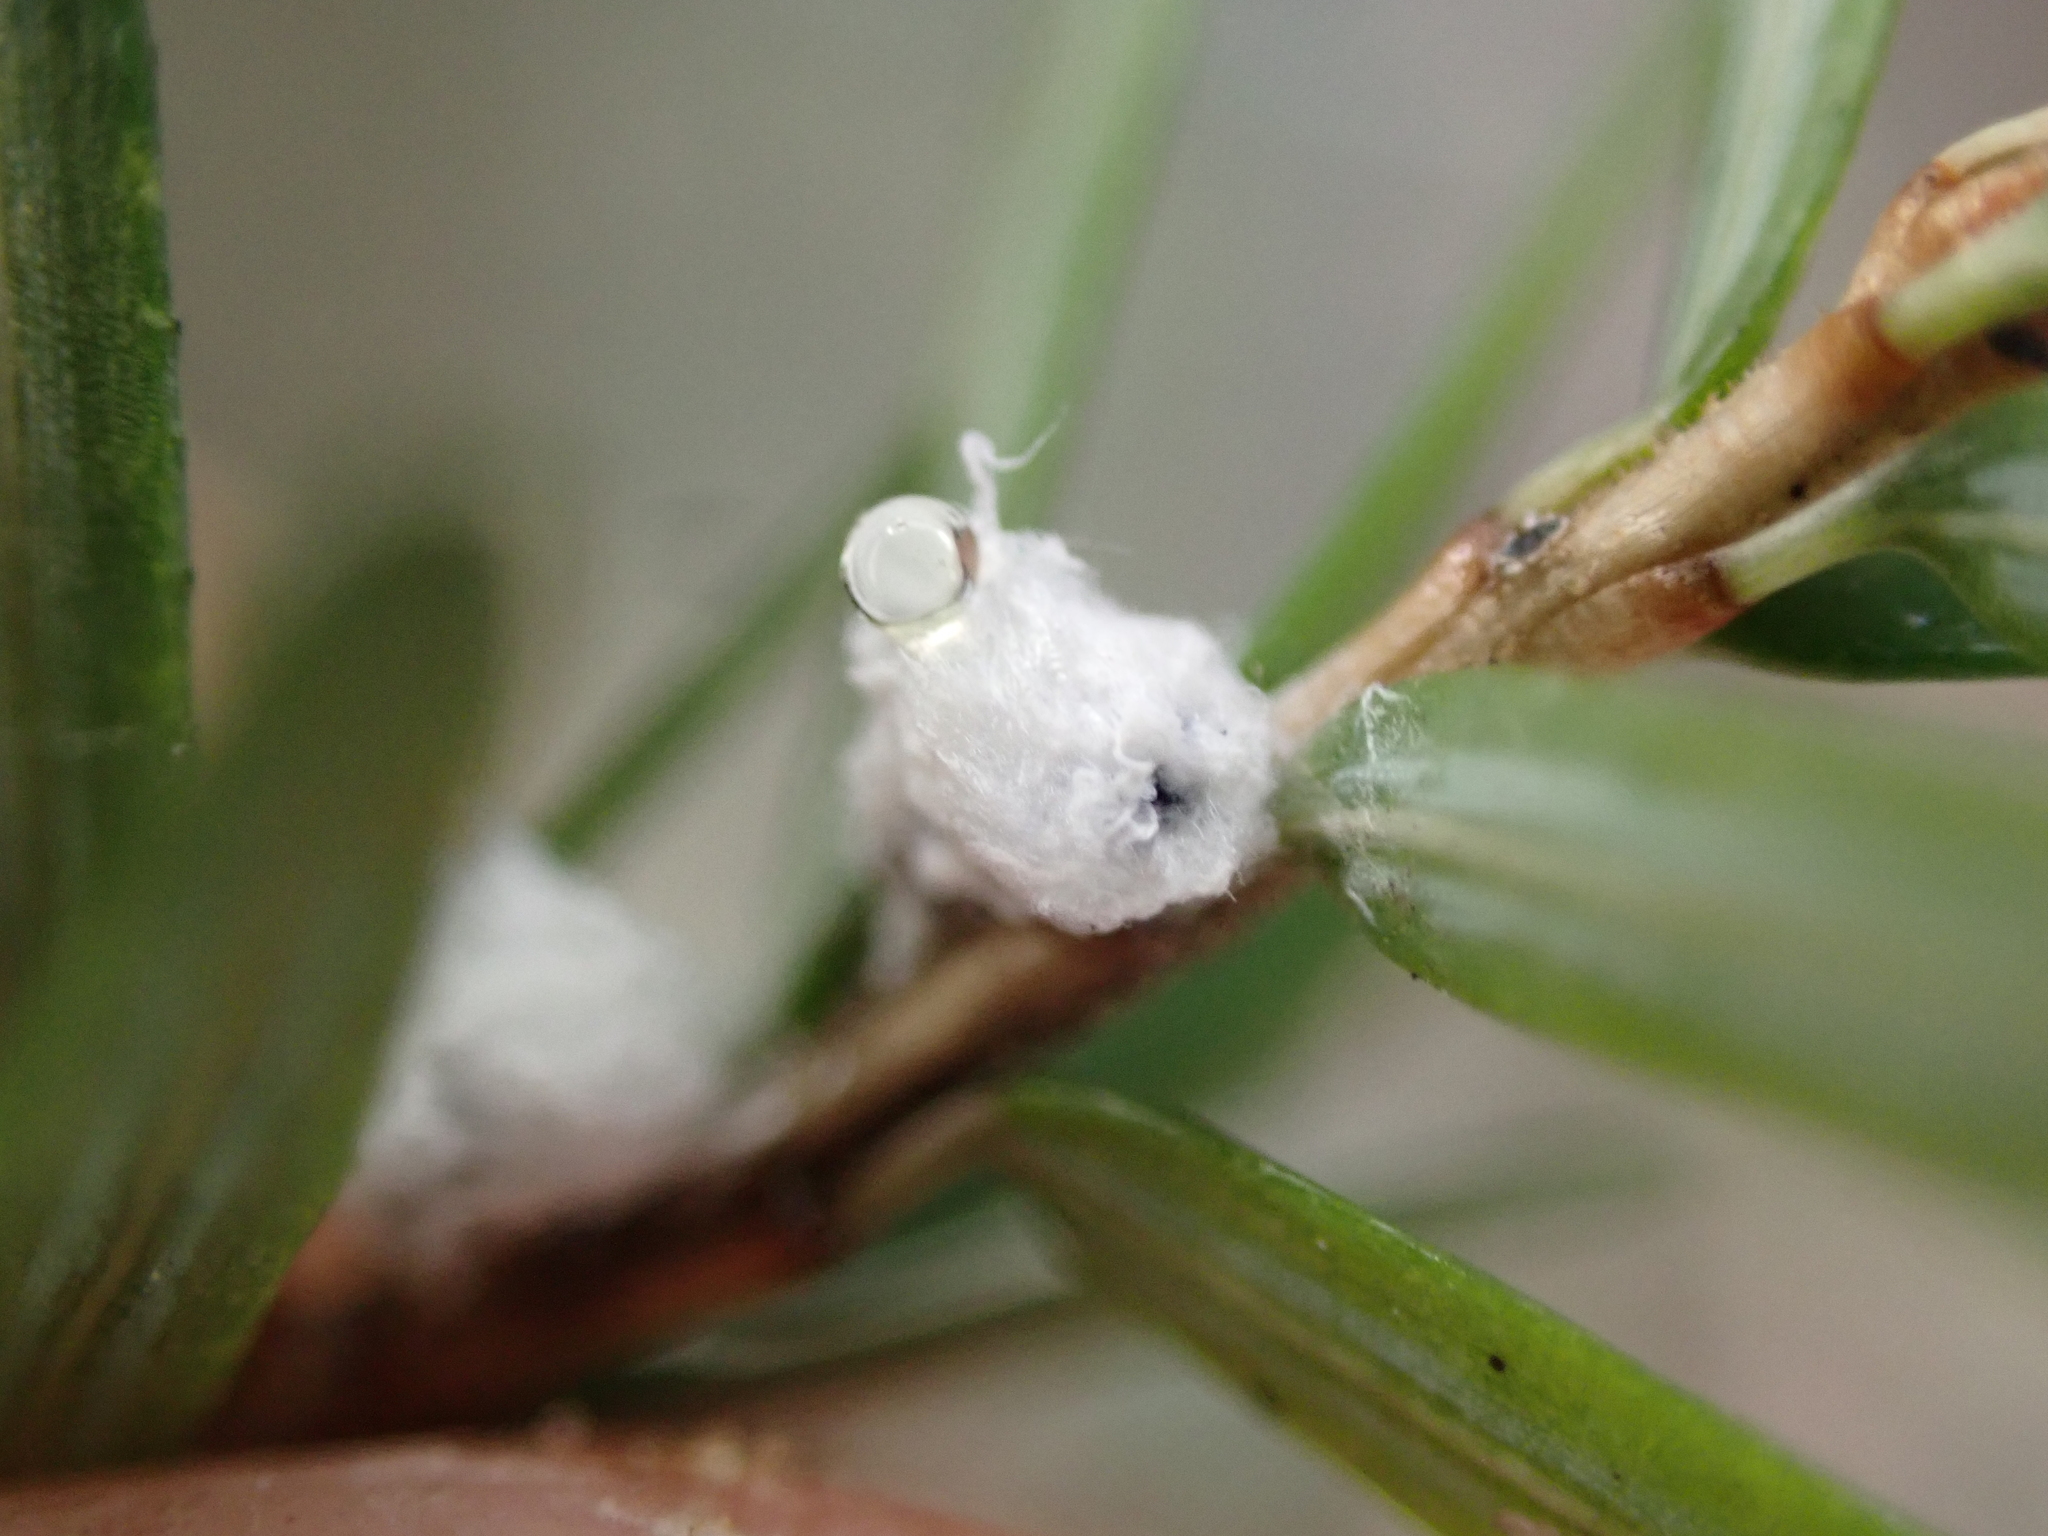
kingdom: Animalia
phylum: Arthropoda
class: Insecta
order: Hemiptera
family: Adelgidae
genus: Adelges
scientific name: Adelges tsugae
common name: Hemlock woolly adelgid
